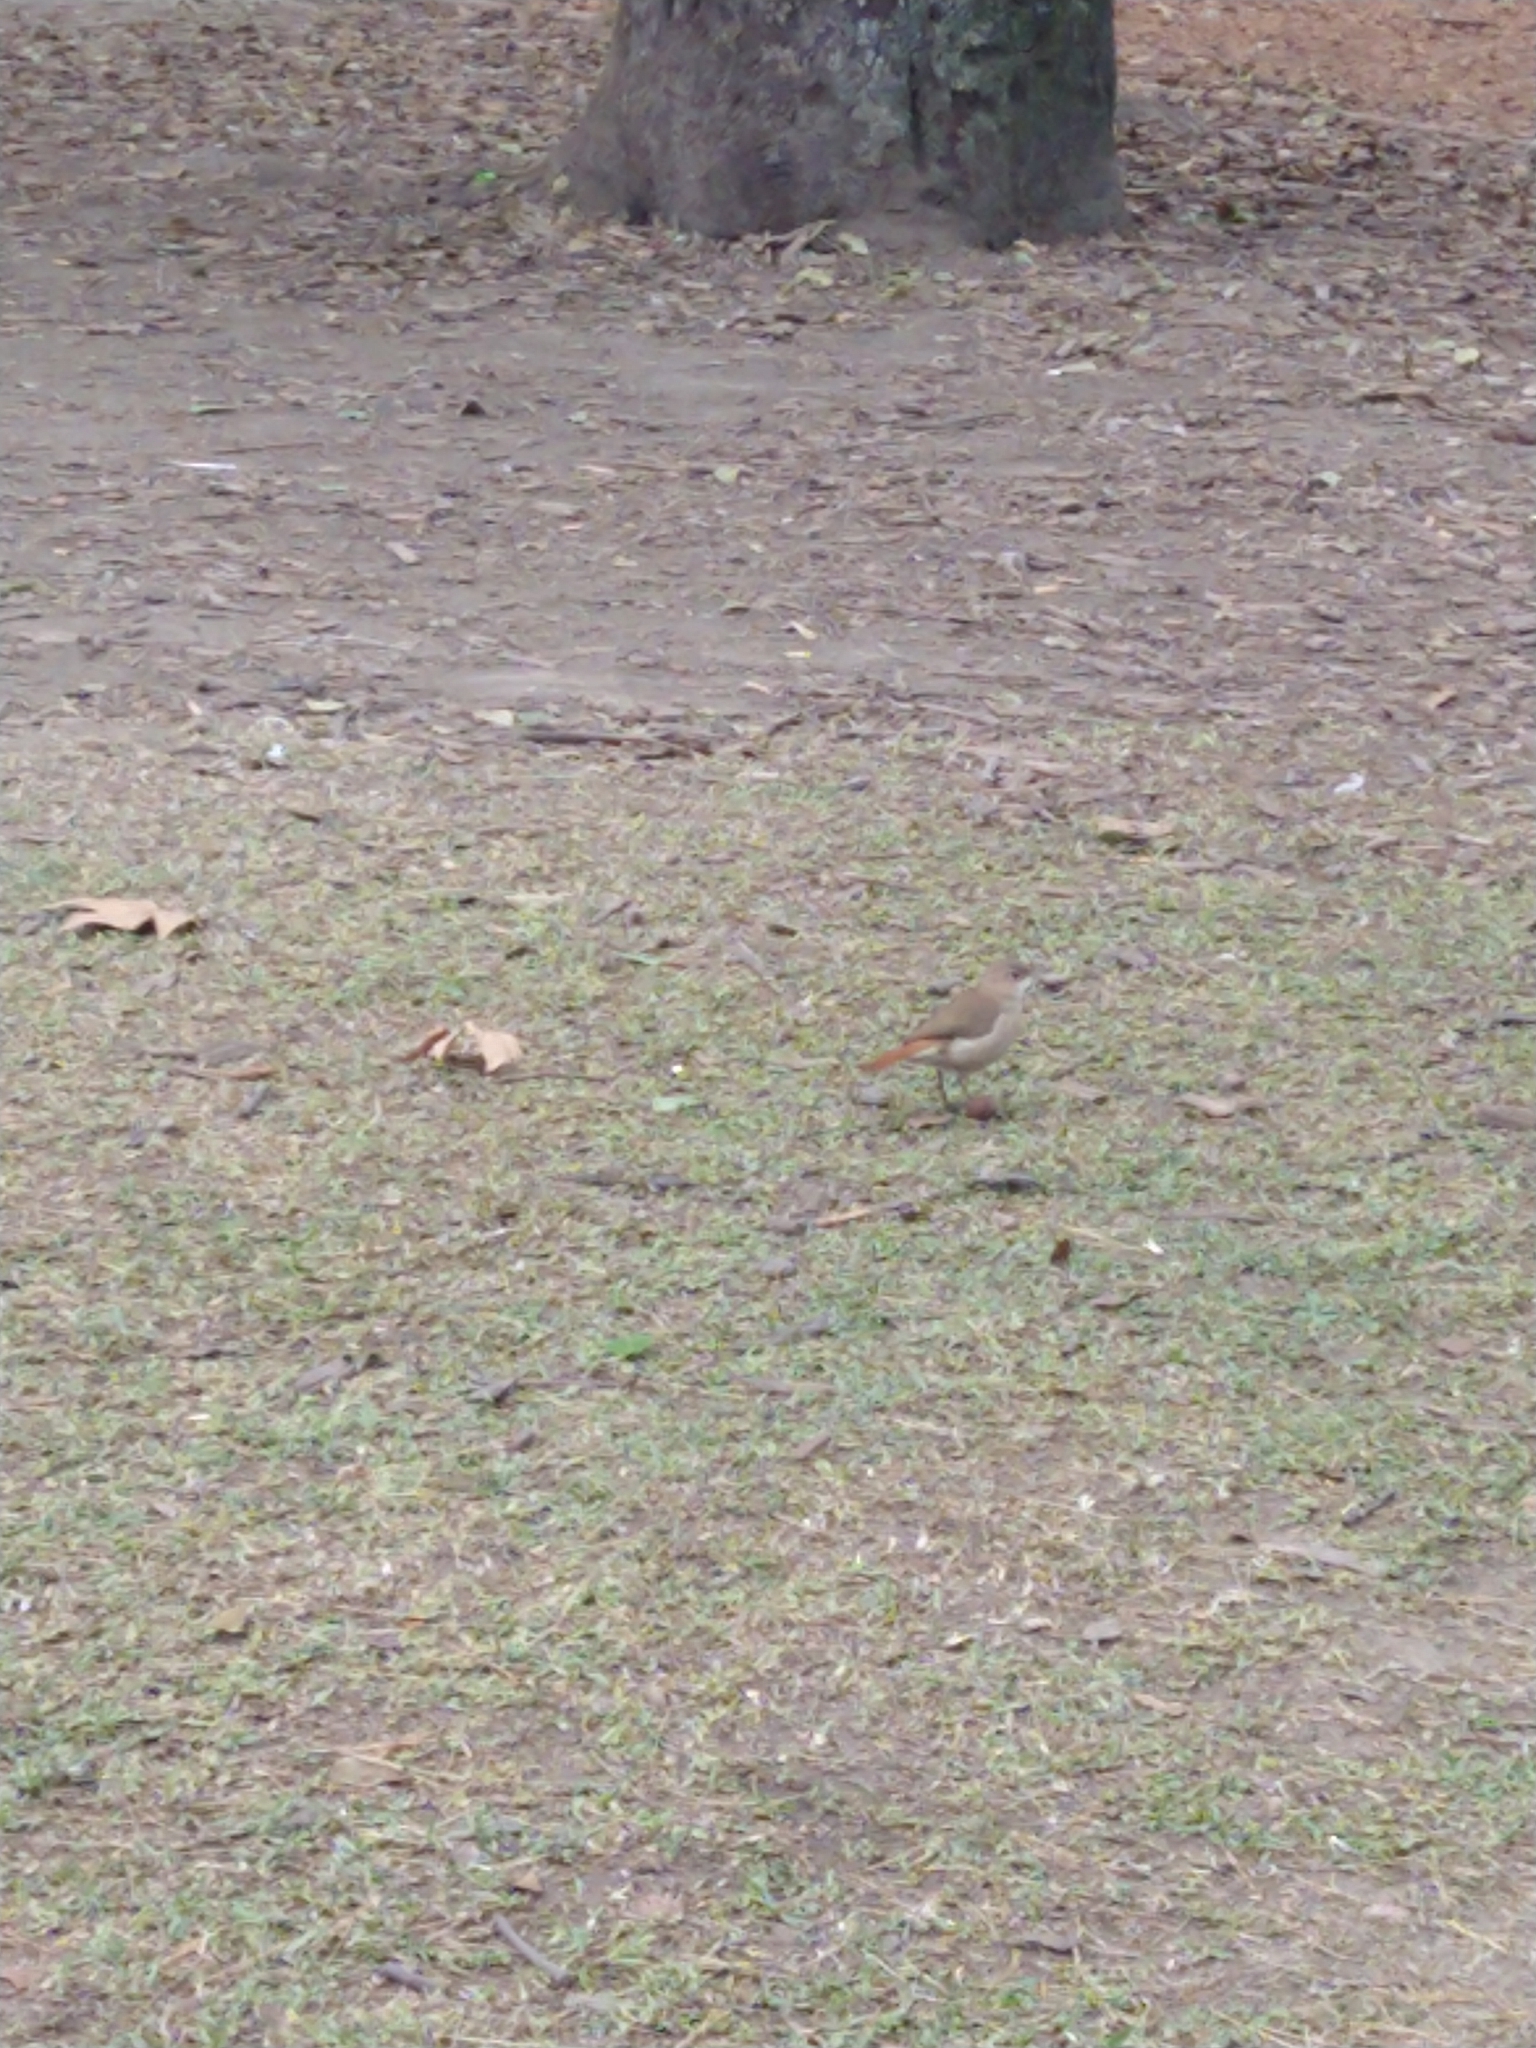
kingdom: Animalia
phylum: Chordata
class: Aves
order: Passeriformes
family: Furnariidae
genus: Furnarius
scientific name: Furnarius rufus
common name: Rufous hornero
